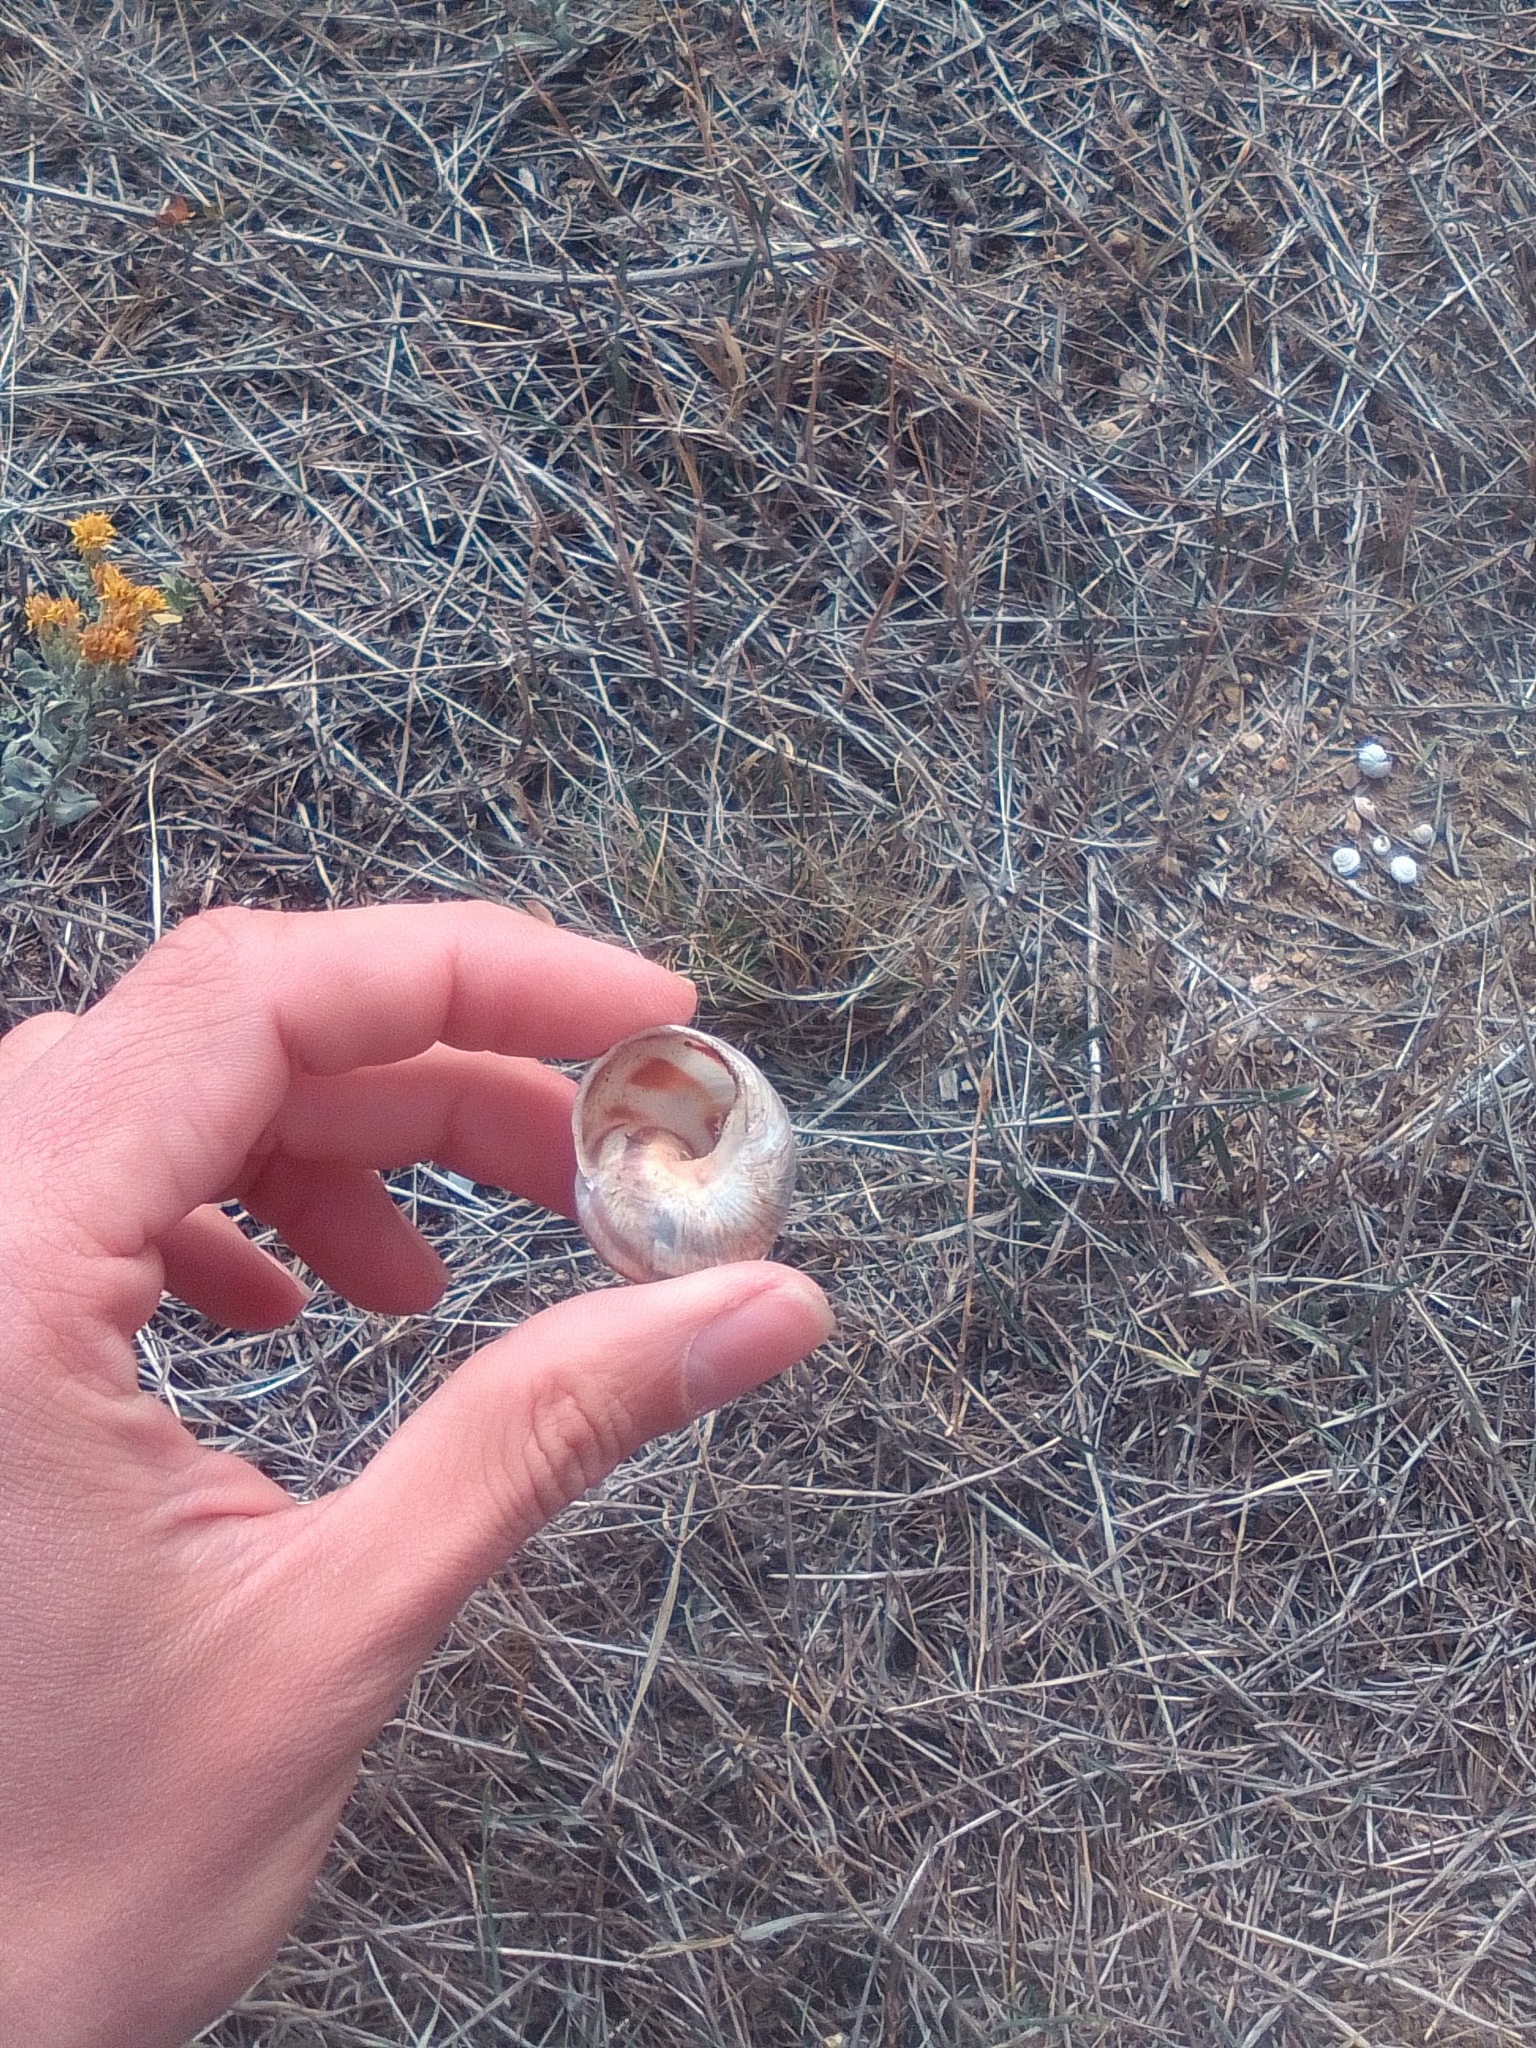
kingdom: Animalia
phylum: Mollusca
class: Gastropoda
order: Stylommatophora
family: Helicidae
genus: Helix
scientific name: Helix albescens
